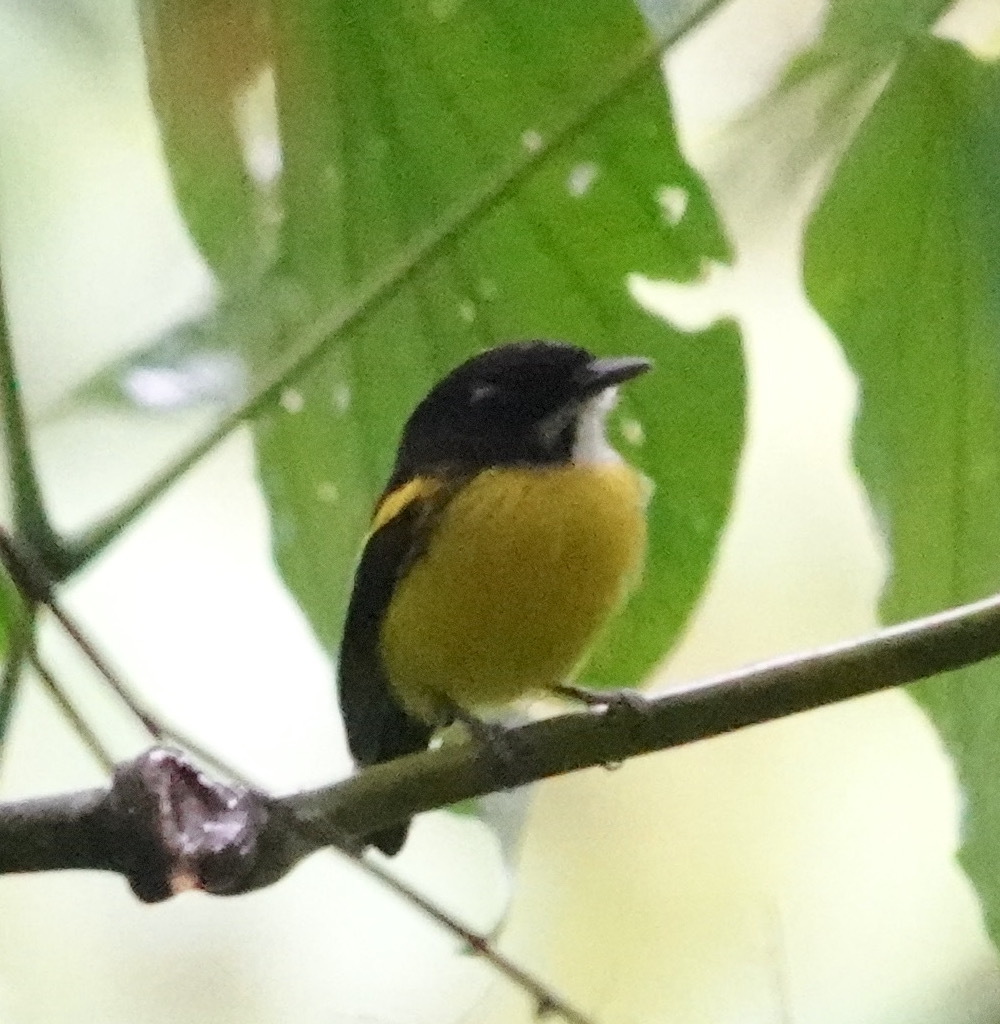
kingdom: Animalia
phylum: Chordata
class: Aves
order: Passeriformes
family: Tyrannidae
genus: Poecilotriccus
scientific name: Poecilotriccus calopterus
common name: Golden-winged tody-flycatcher
